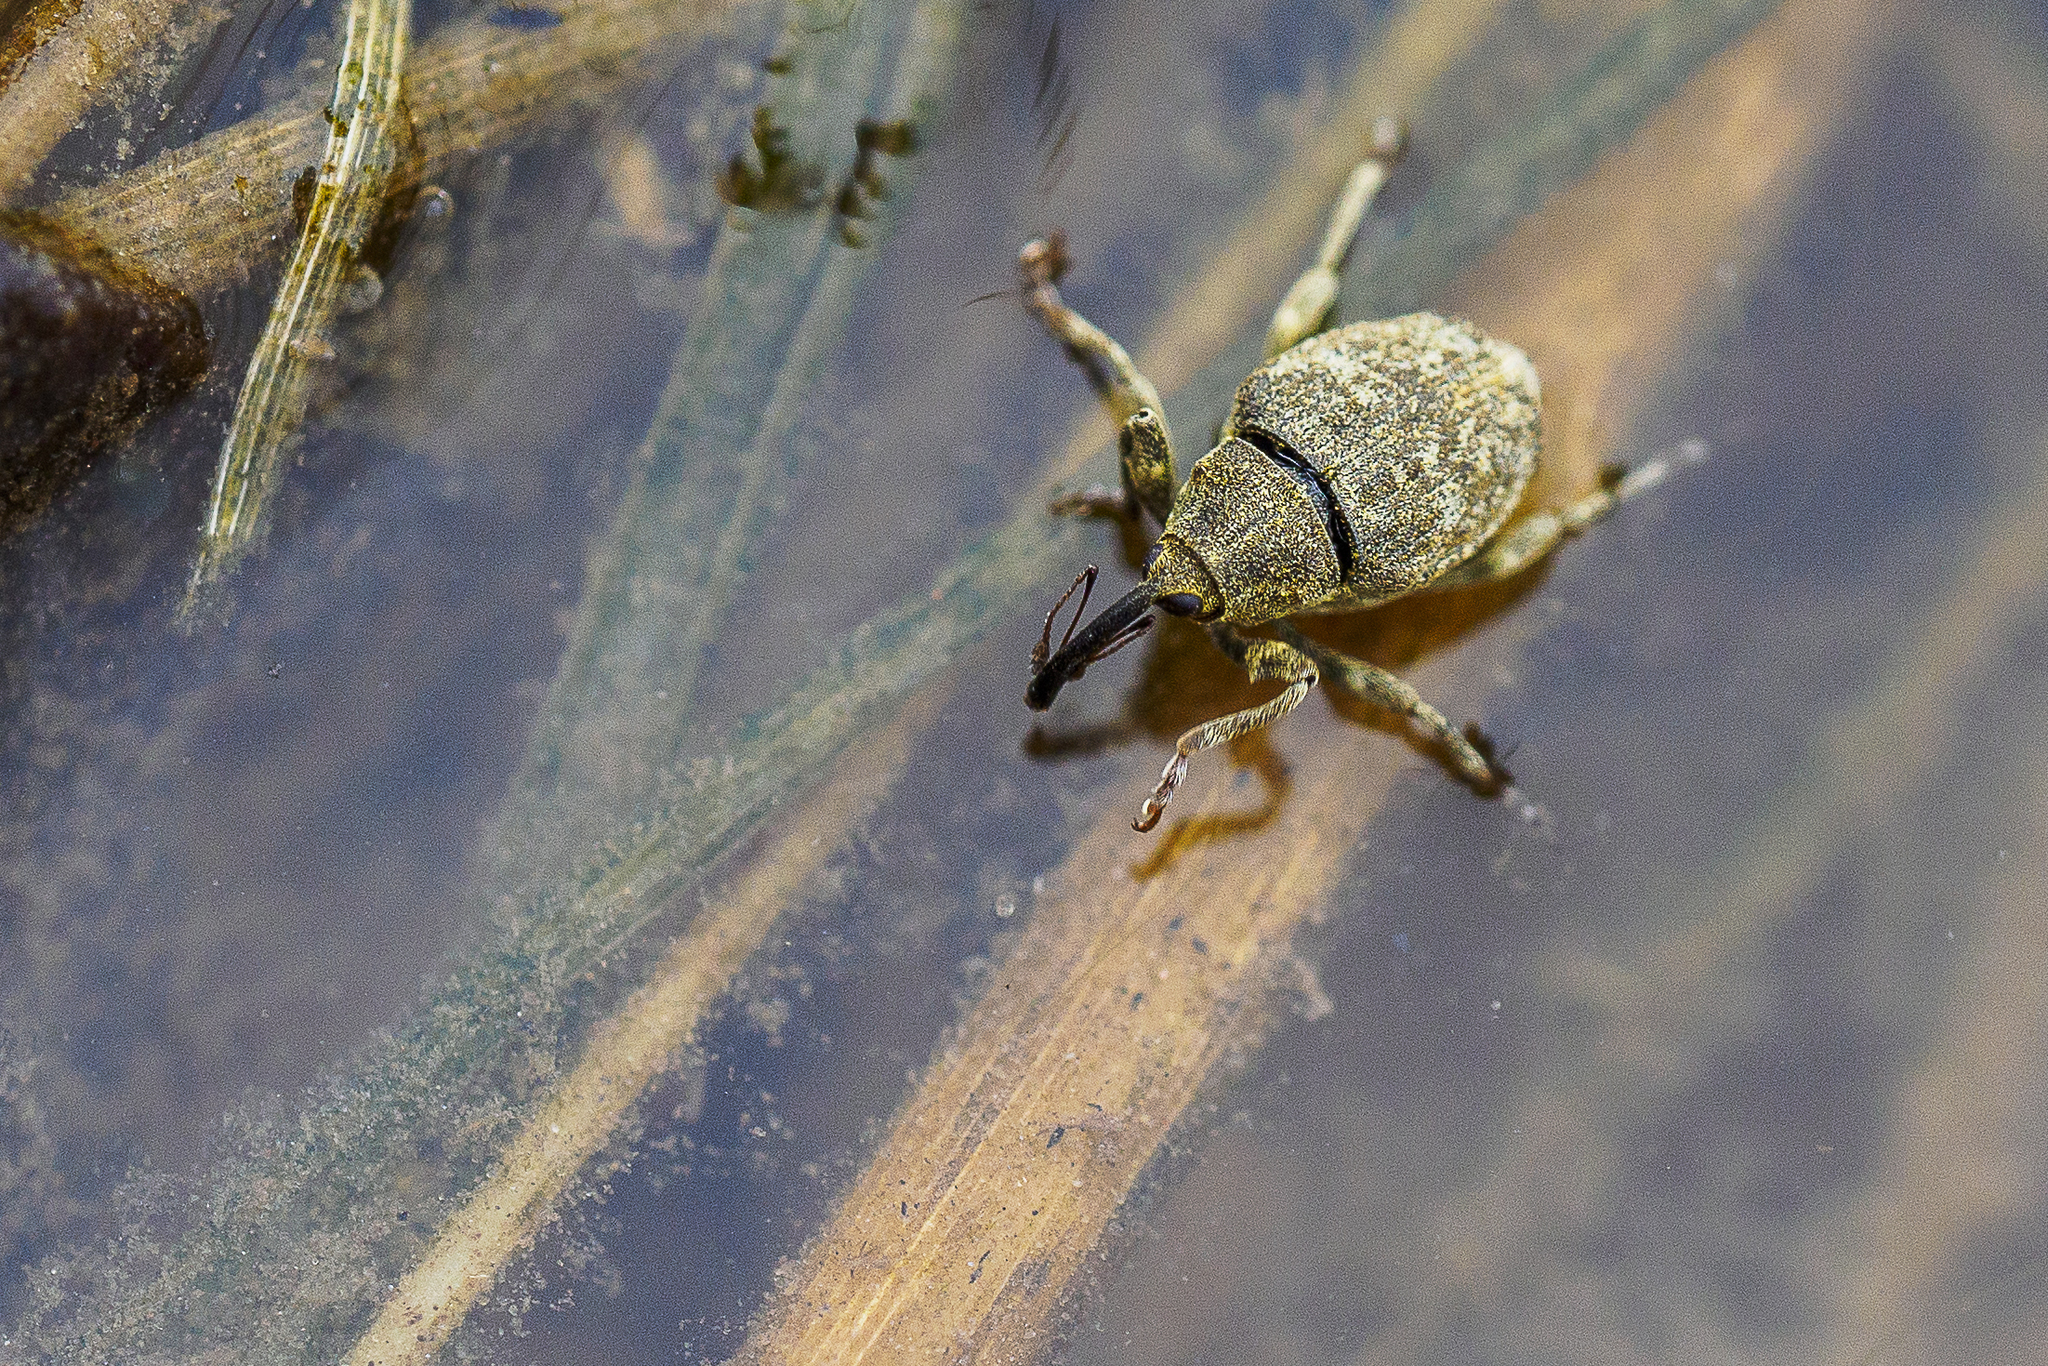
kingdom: Animalia
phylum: Arthropoda
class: Insecta
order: Coleoptera
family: Curculionidae
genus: Parethelcus
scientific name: Parethelcus pollinarius
